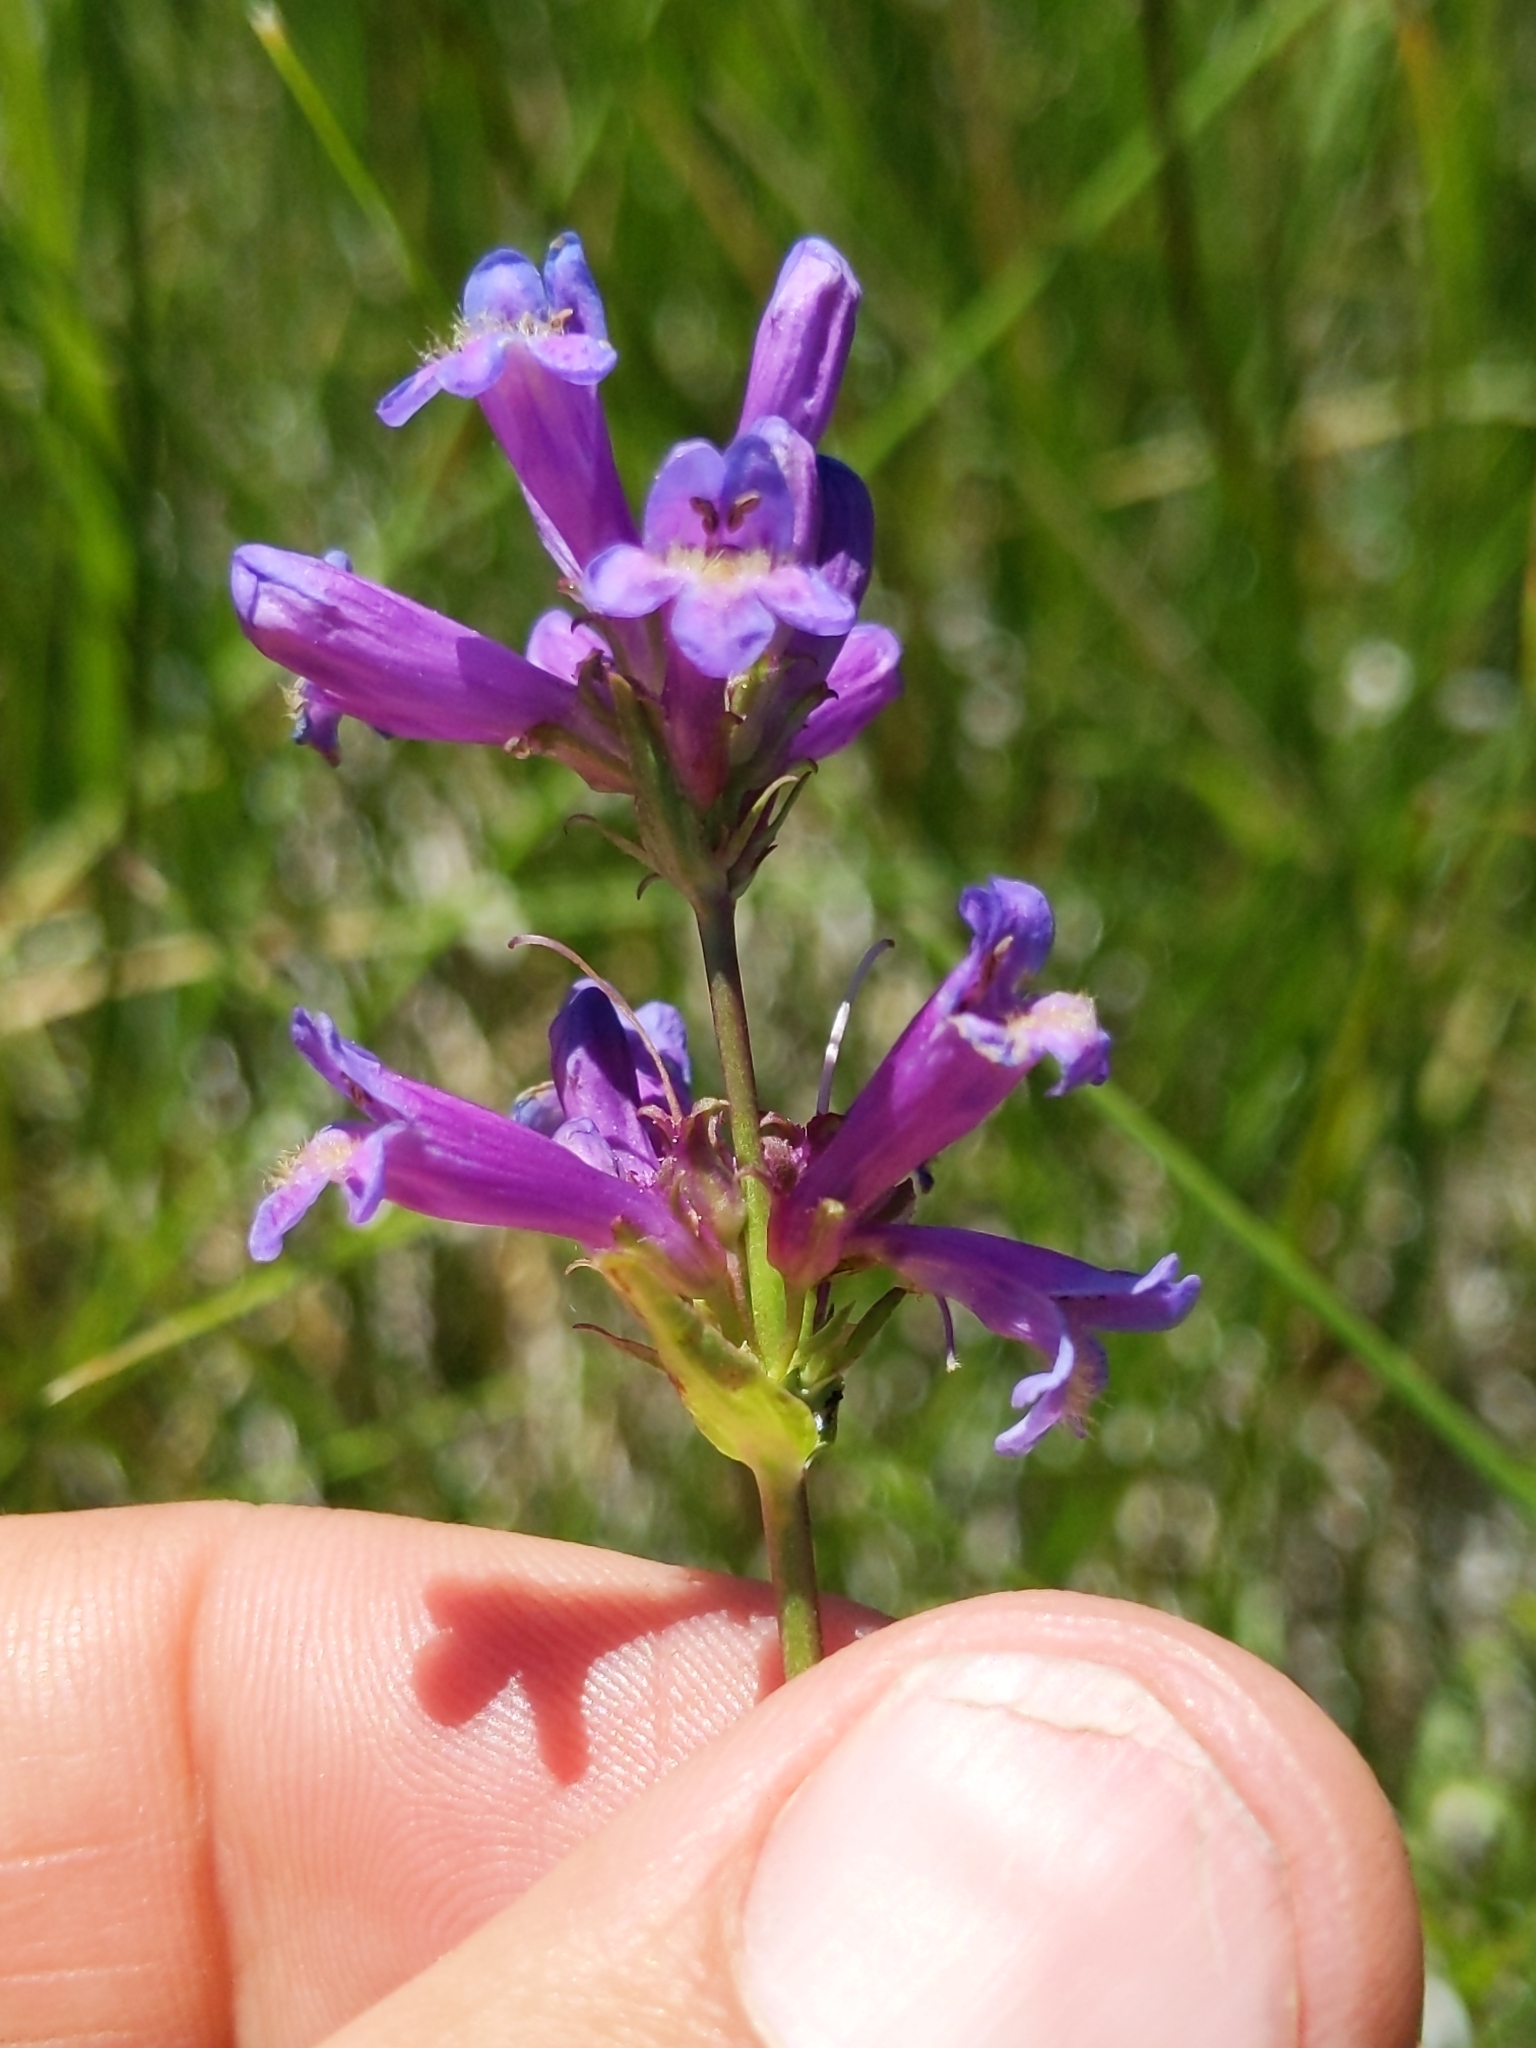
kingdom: Plantae
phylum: Tracheophyta
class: Magnoliopsida
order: Lamiales
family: Plantaginaceae
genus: Penstemon
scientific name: Penstemon rydbergii
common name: Rydberg's beardtongue
